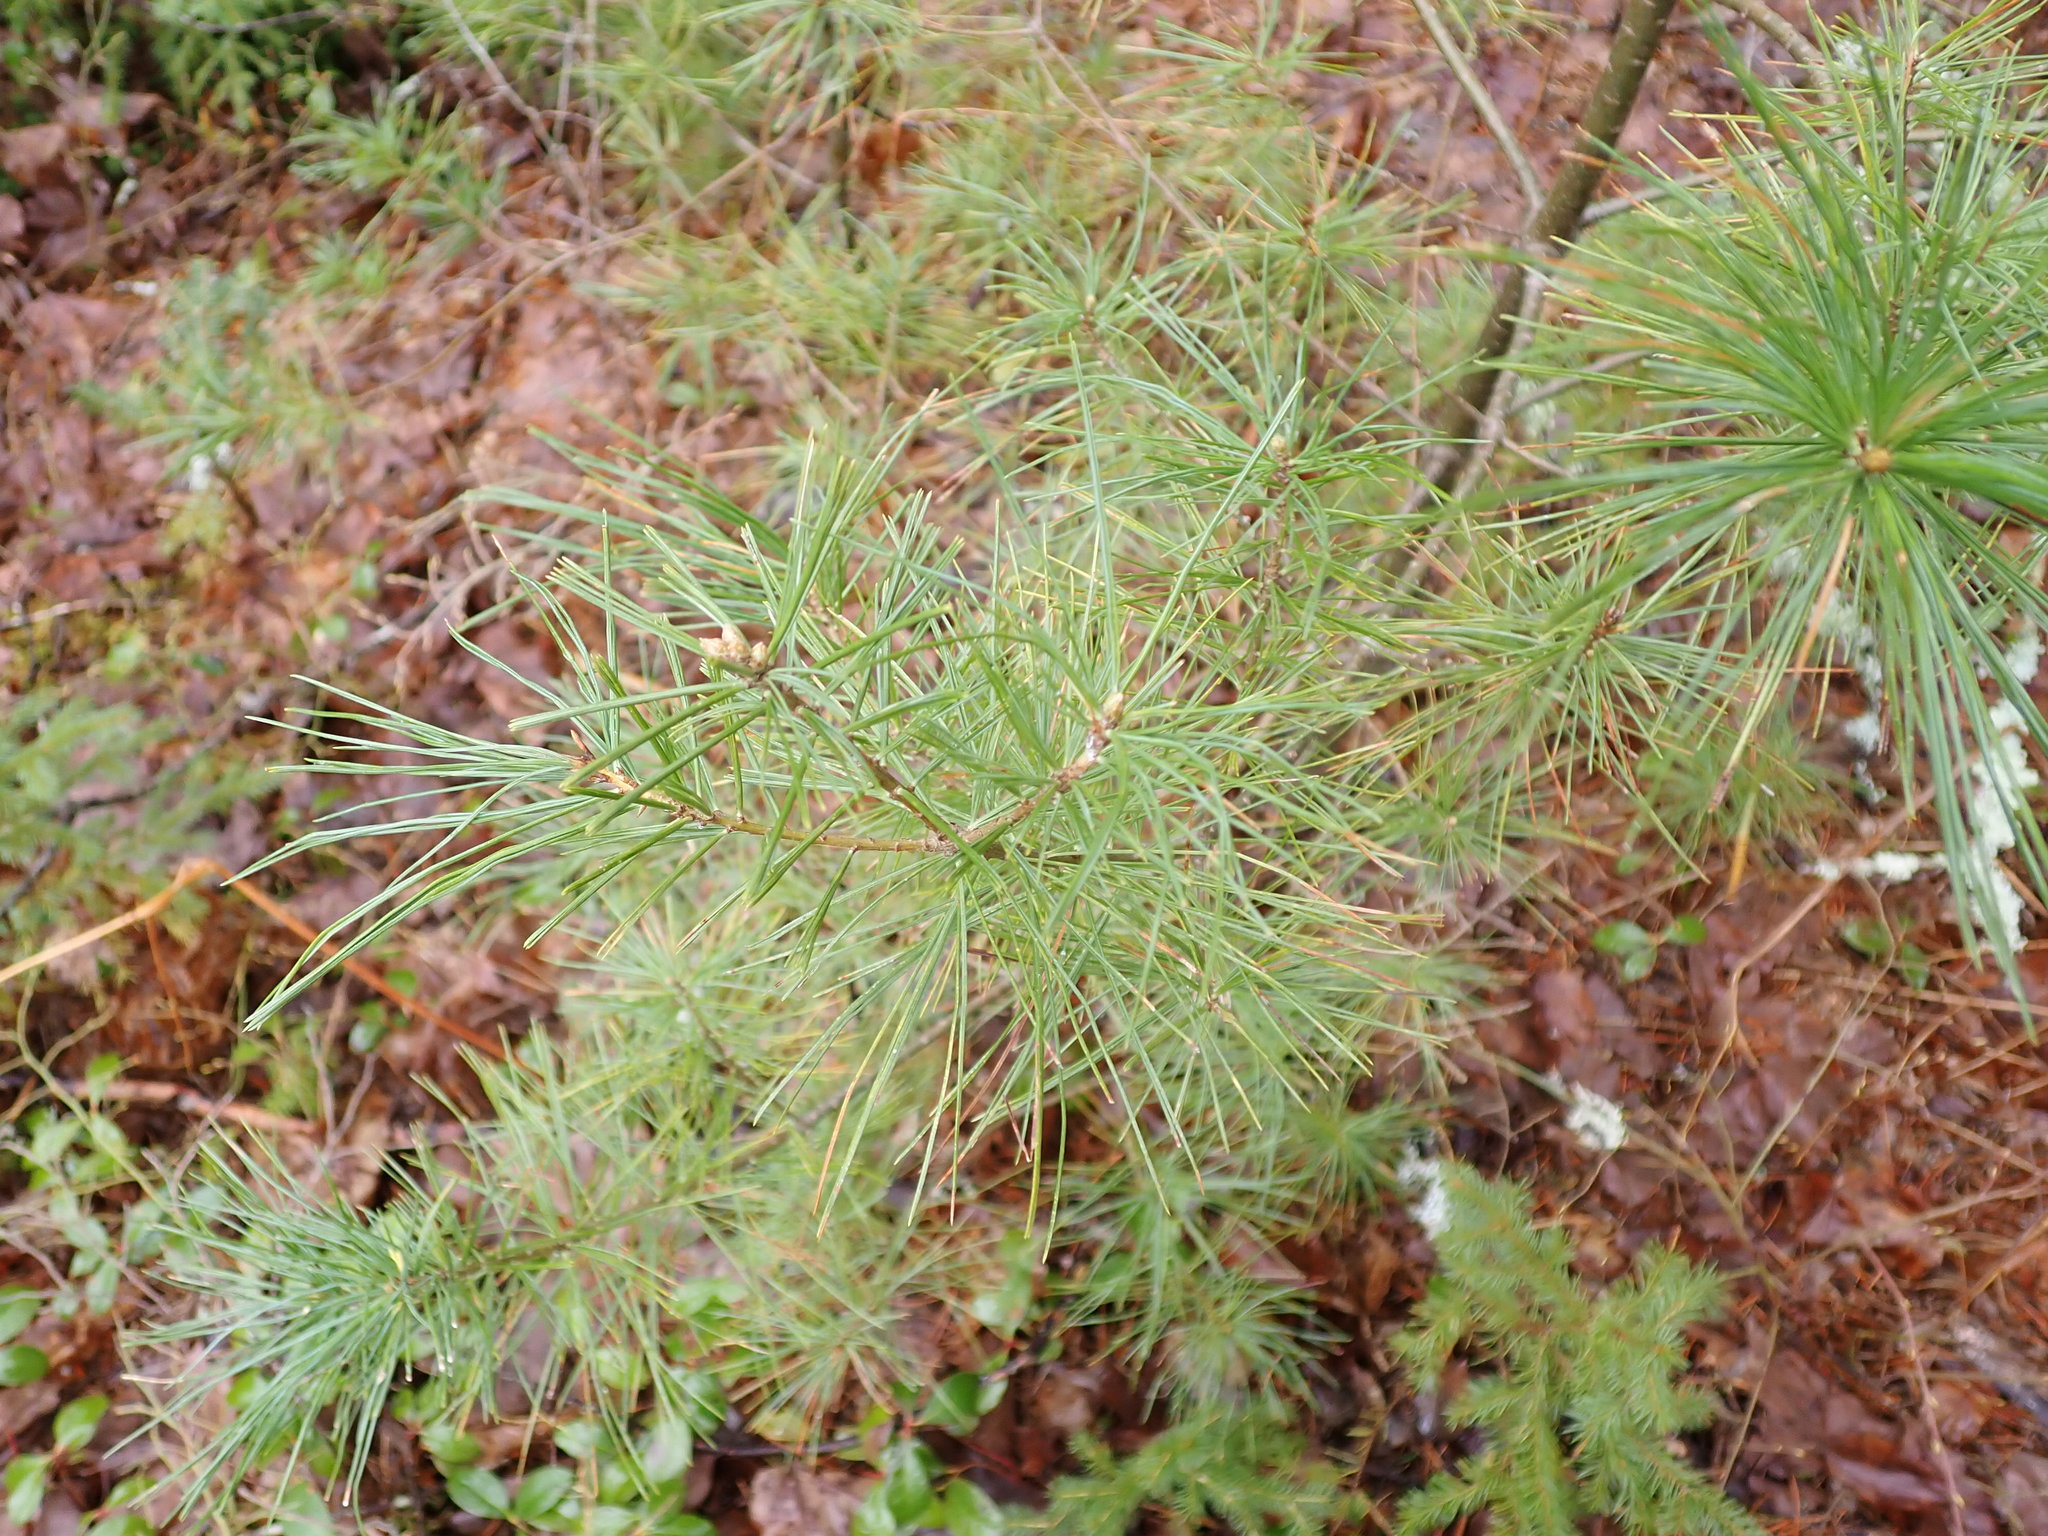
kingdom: Plantae
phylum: Tracheophyta
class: Pinopsida
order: Pinales
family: Pinaceae
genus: Pinus
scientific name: Pinus strobus
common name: Weymouth pine
